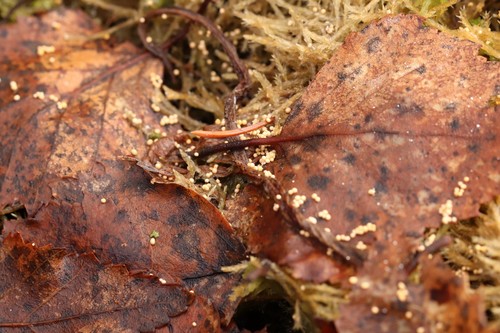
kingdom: Fungi
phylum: Basidiomycota
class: Agaricomycetes
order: Agaricales
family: Typhulaceae
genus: Macrotyphula
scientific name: Macrotyphula
